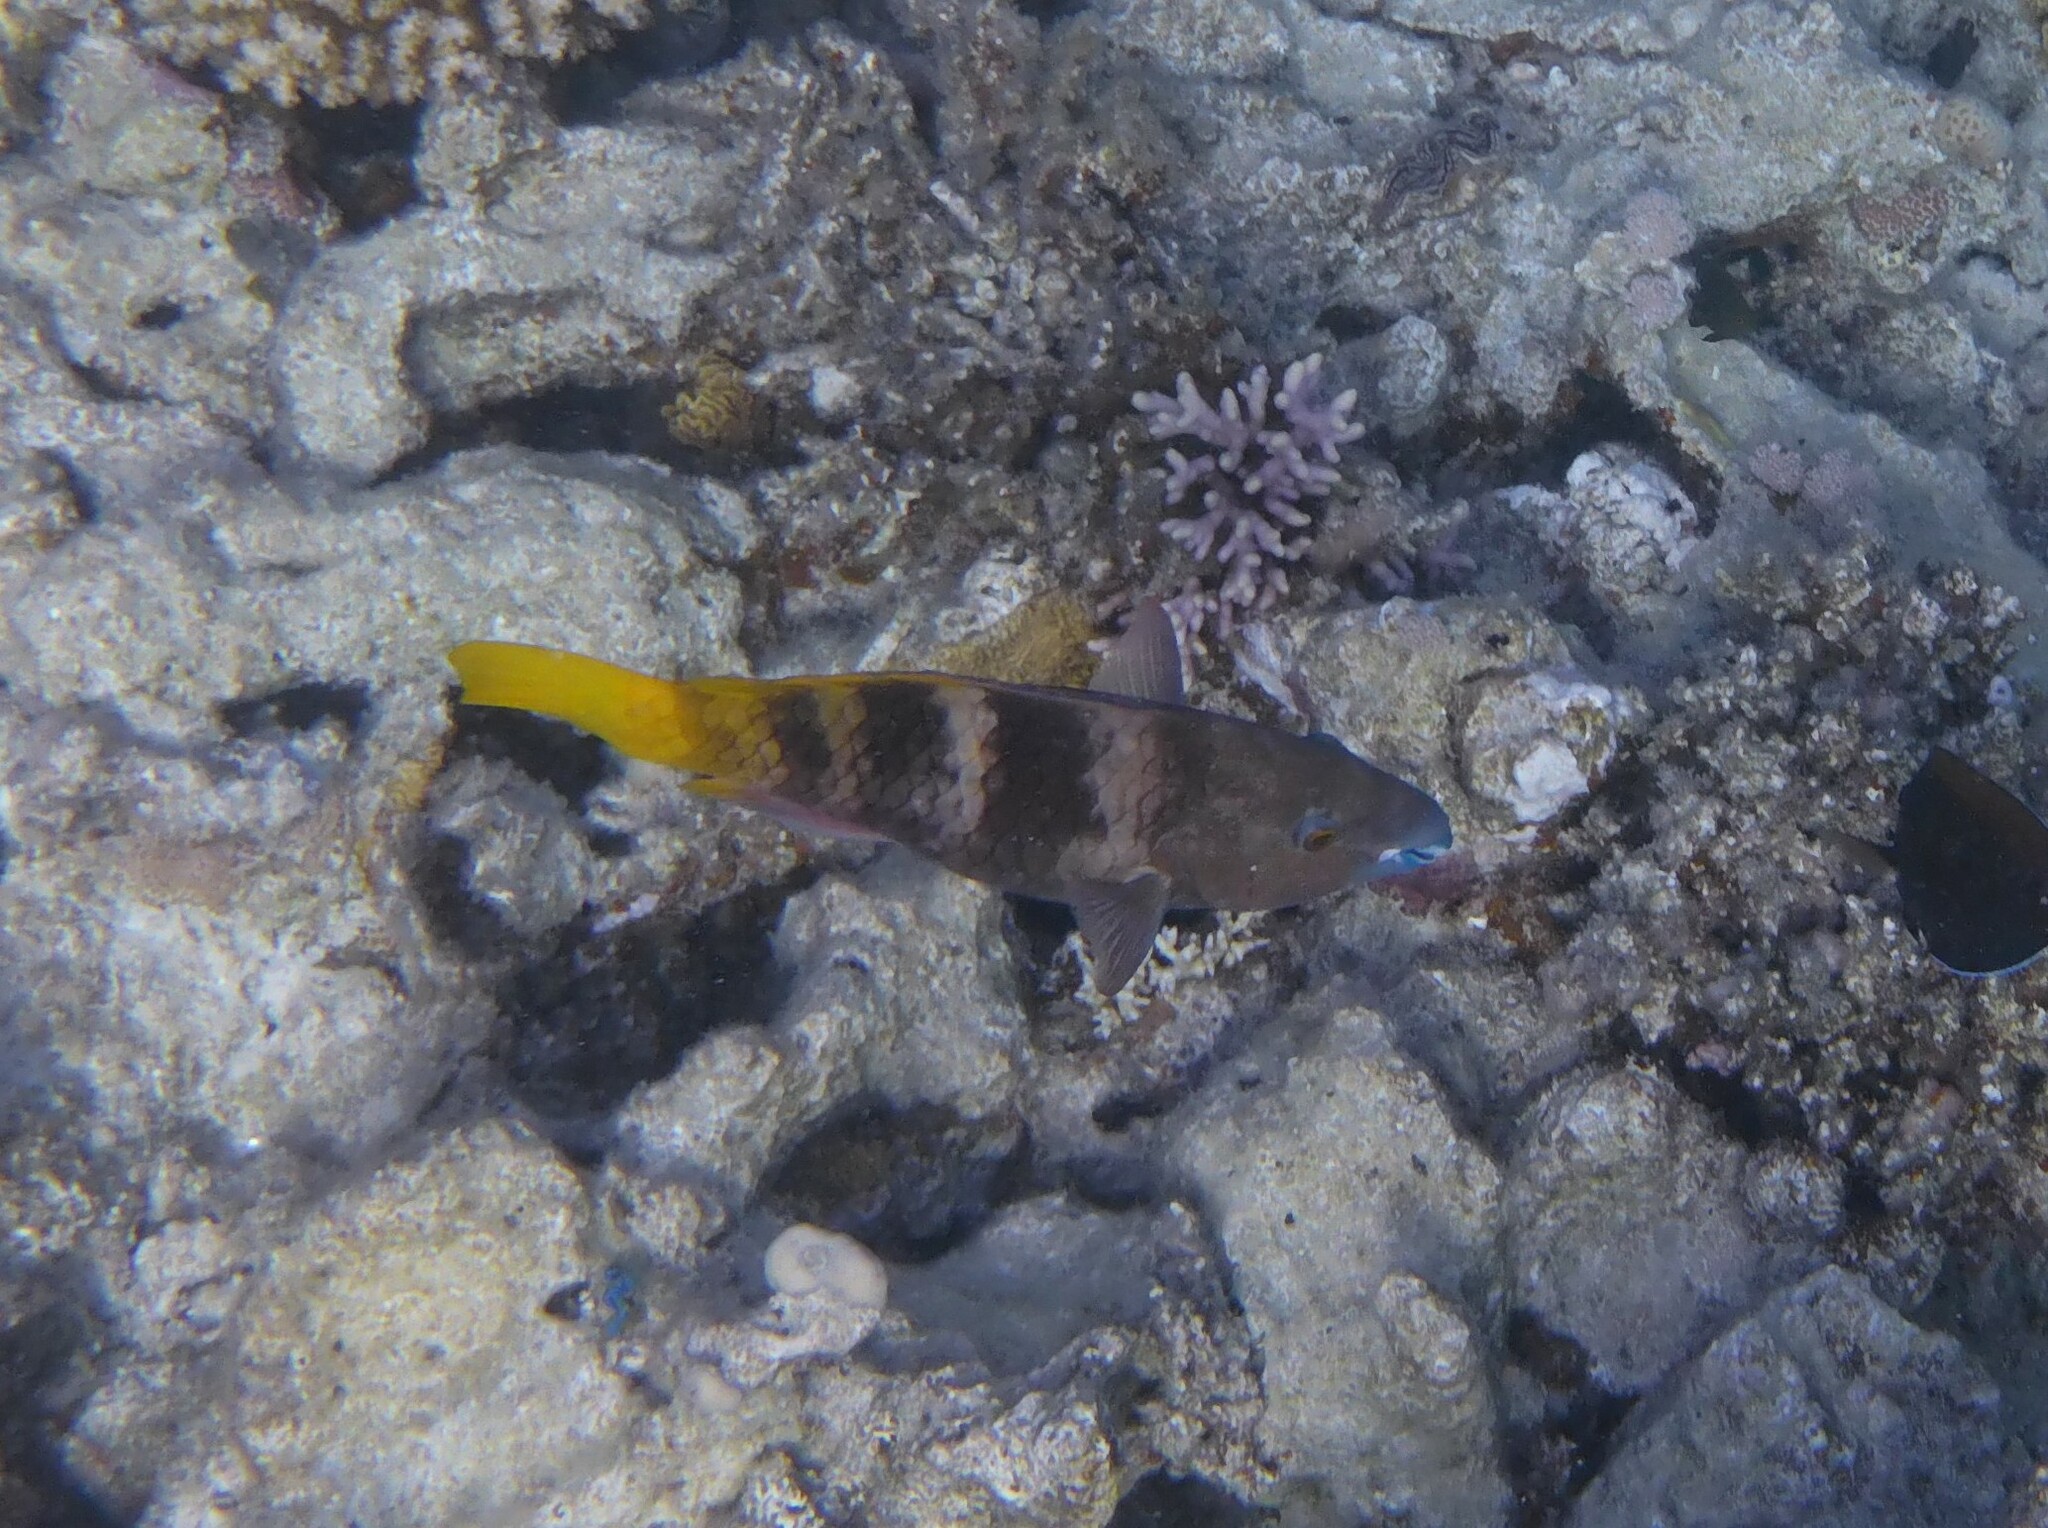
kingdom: Animalia
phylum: Chordata
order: Perciformes
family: Scaridae
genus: Scarus
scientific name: Scarus ferrugineus
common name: Rusty parrotfish
